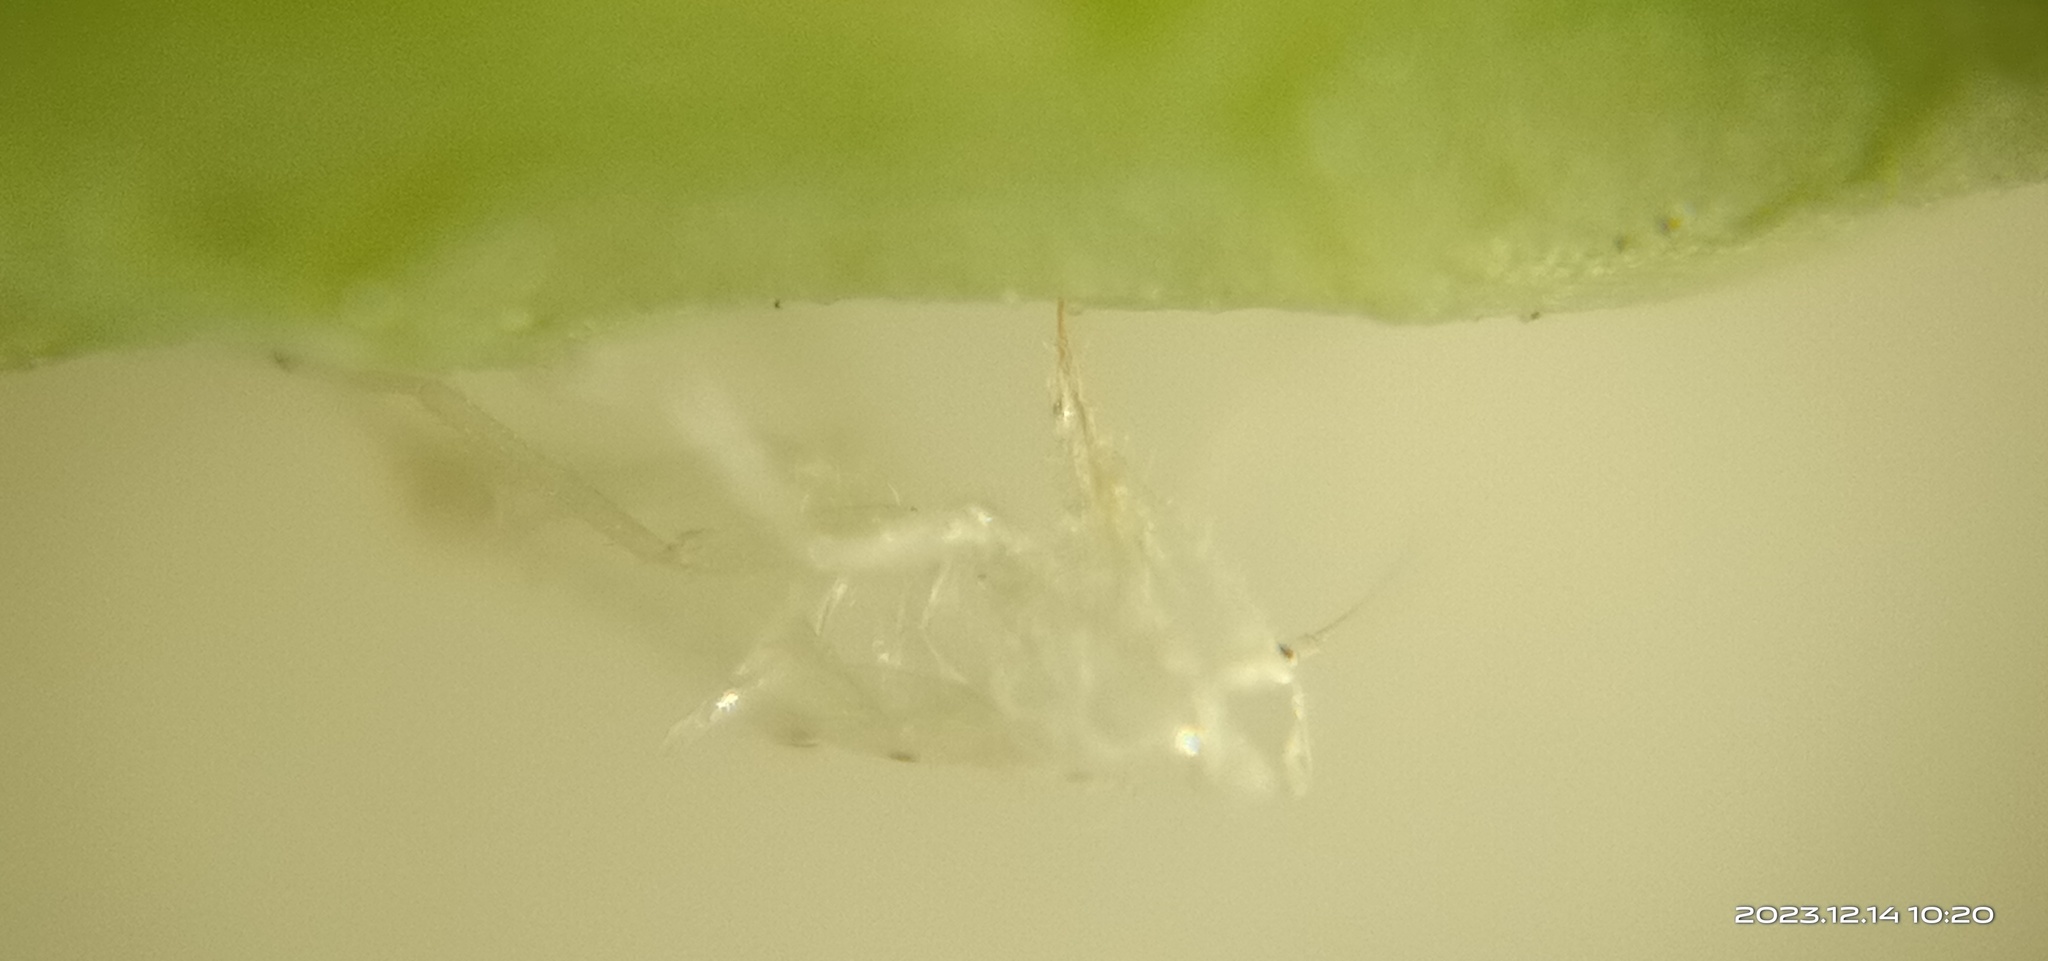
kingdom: Animalia
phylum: Arthropoda
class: Insecta
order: Hemiptera
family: Cicadellidae
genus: Amrasca
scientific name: Amrasca biguttula
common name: Indian cotton jassid
